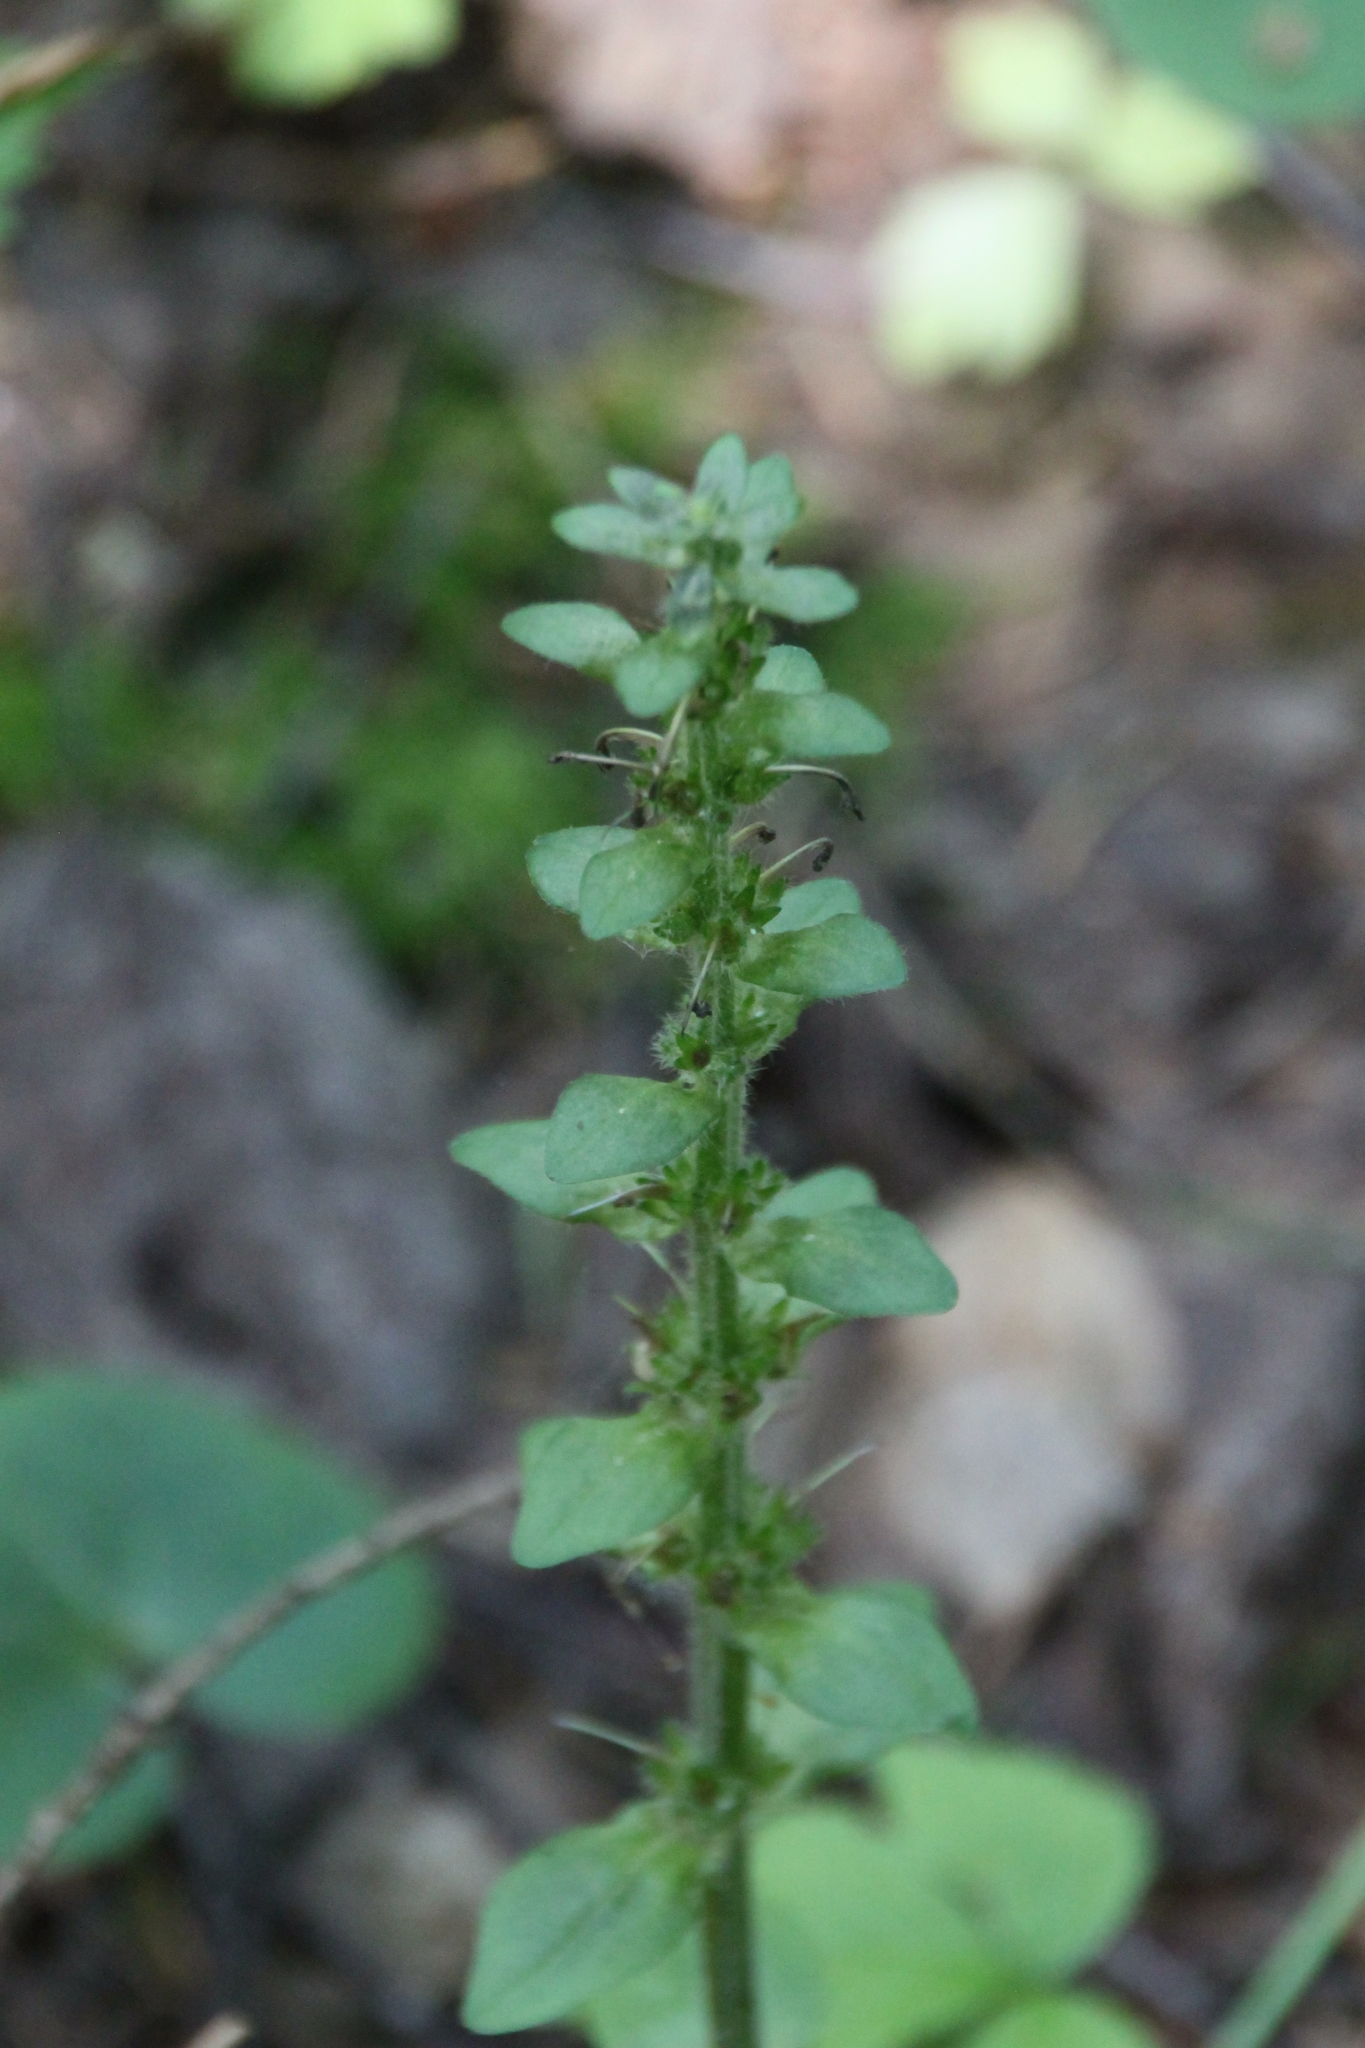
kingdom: Plantae
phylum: Tracheophyta
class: Magnoliopsida
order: Lamiales
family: Lamiaceae
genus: Ajuga
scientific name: Ajuga reptans
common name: Bugle
